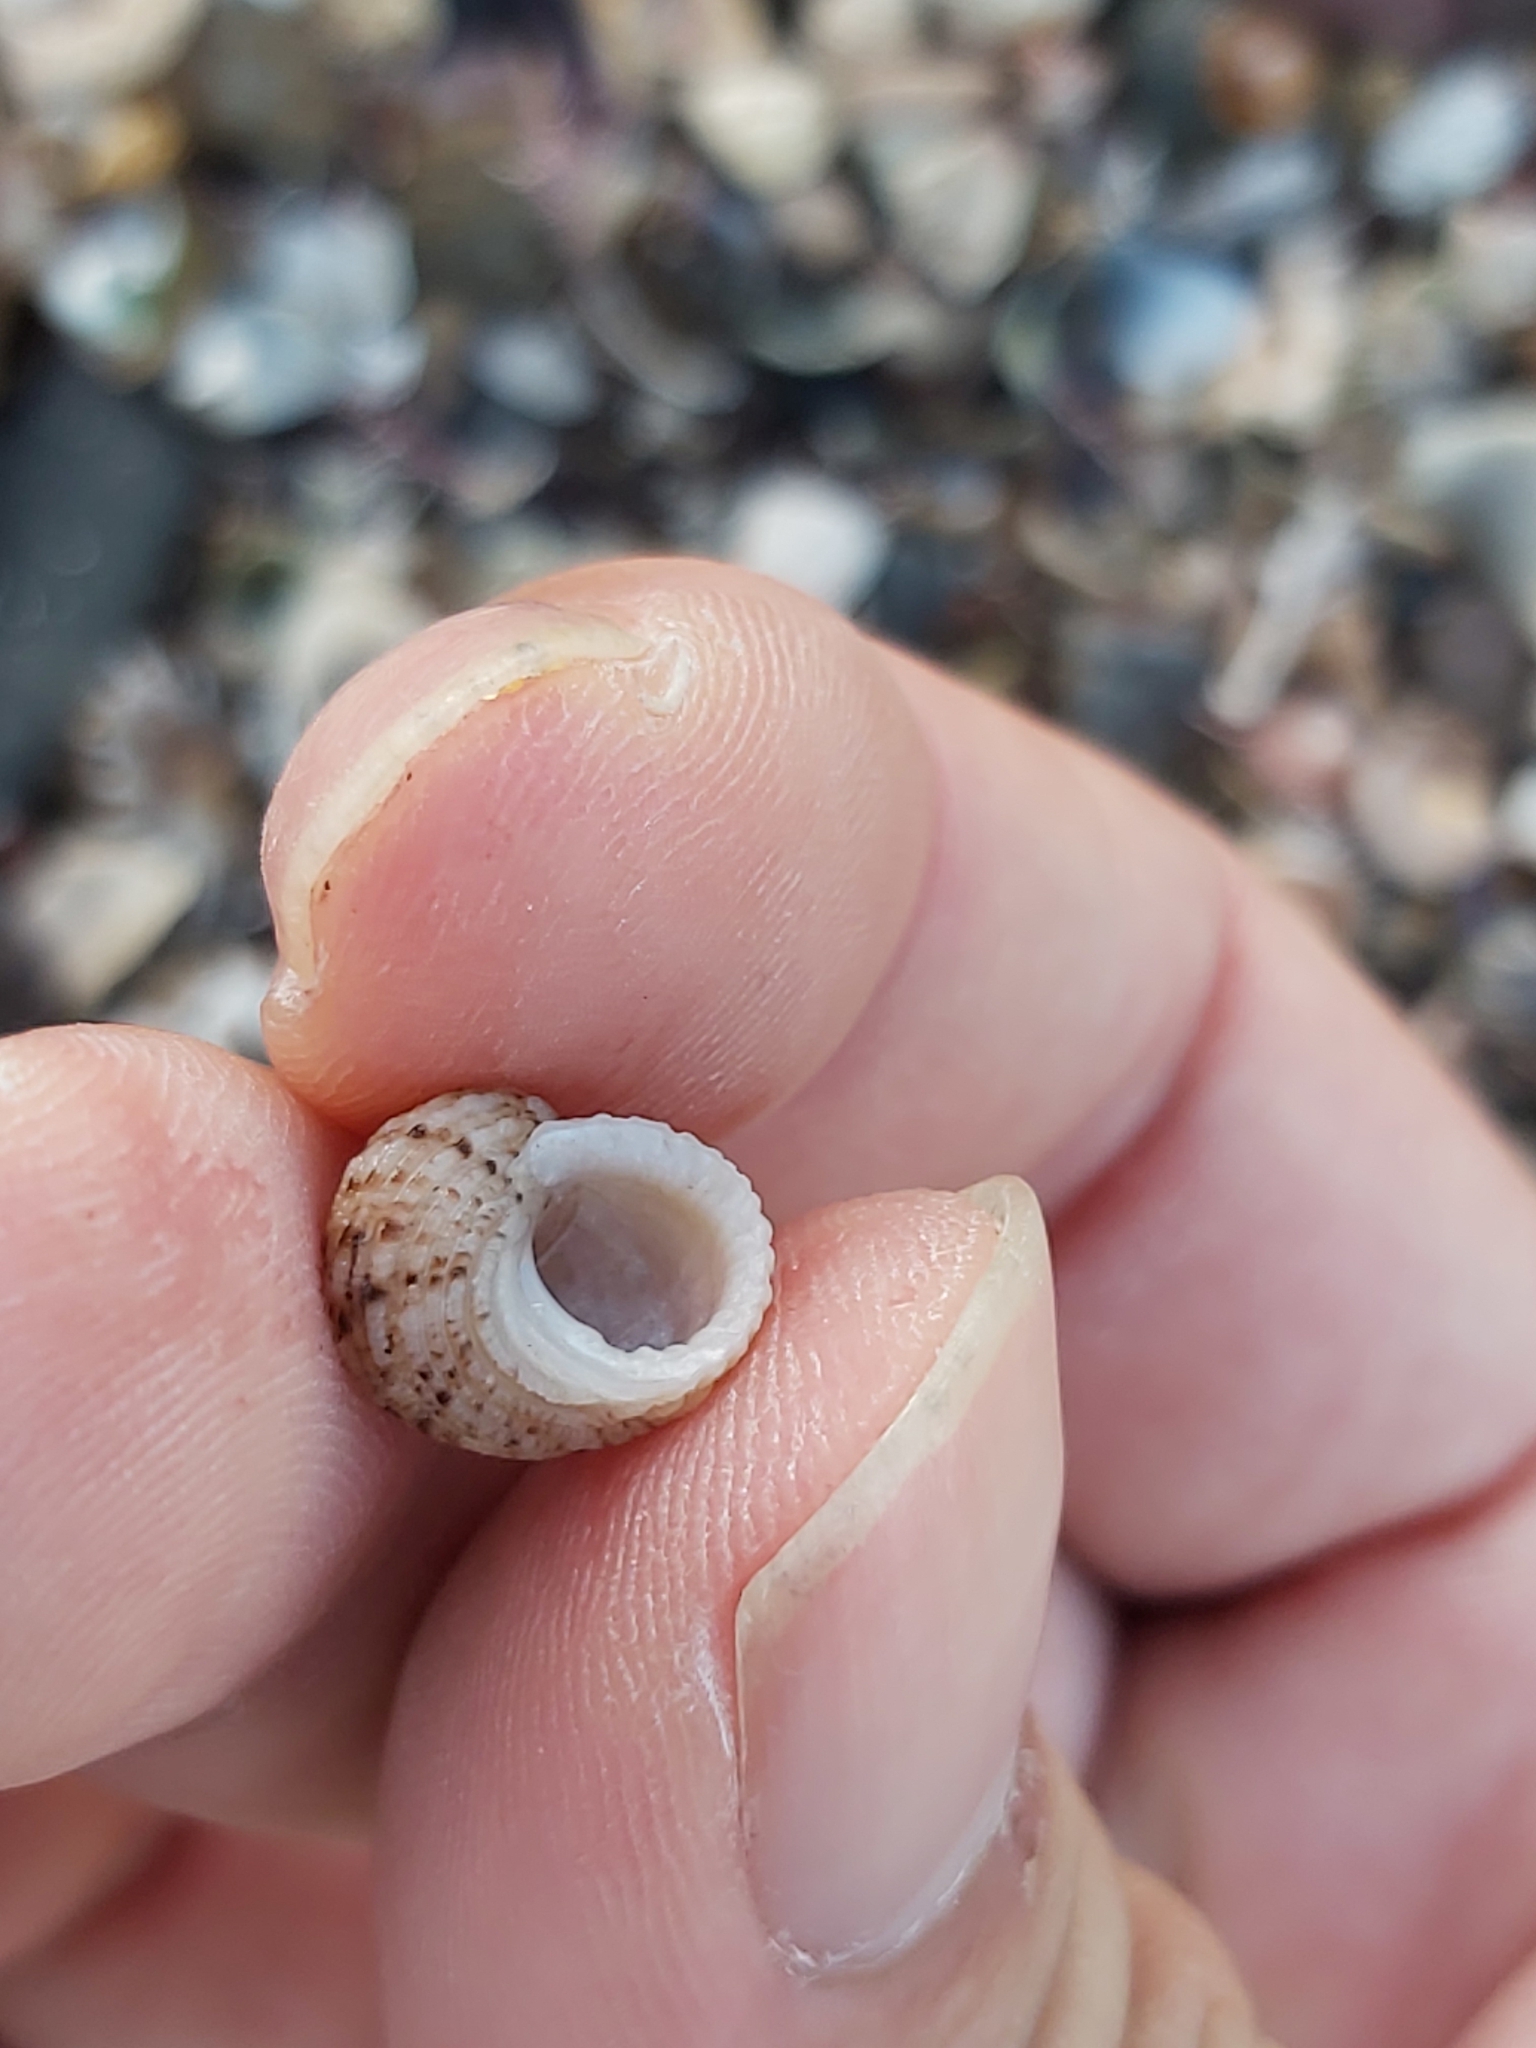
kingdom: Animalia
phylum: Mollusca
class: Gastropoda
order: Seguenziida
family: Chilodontaidae
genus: Herpetopoma
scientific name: Herpetopoma aspersum
